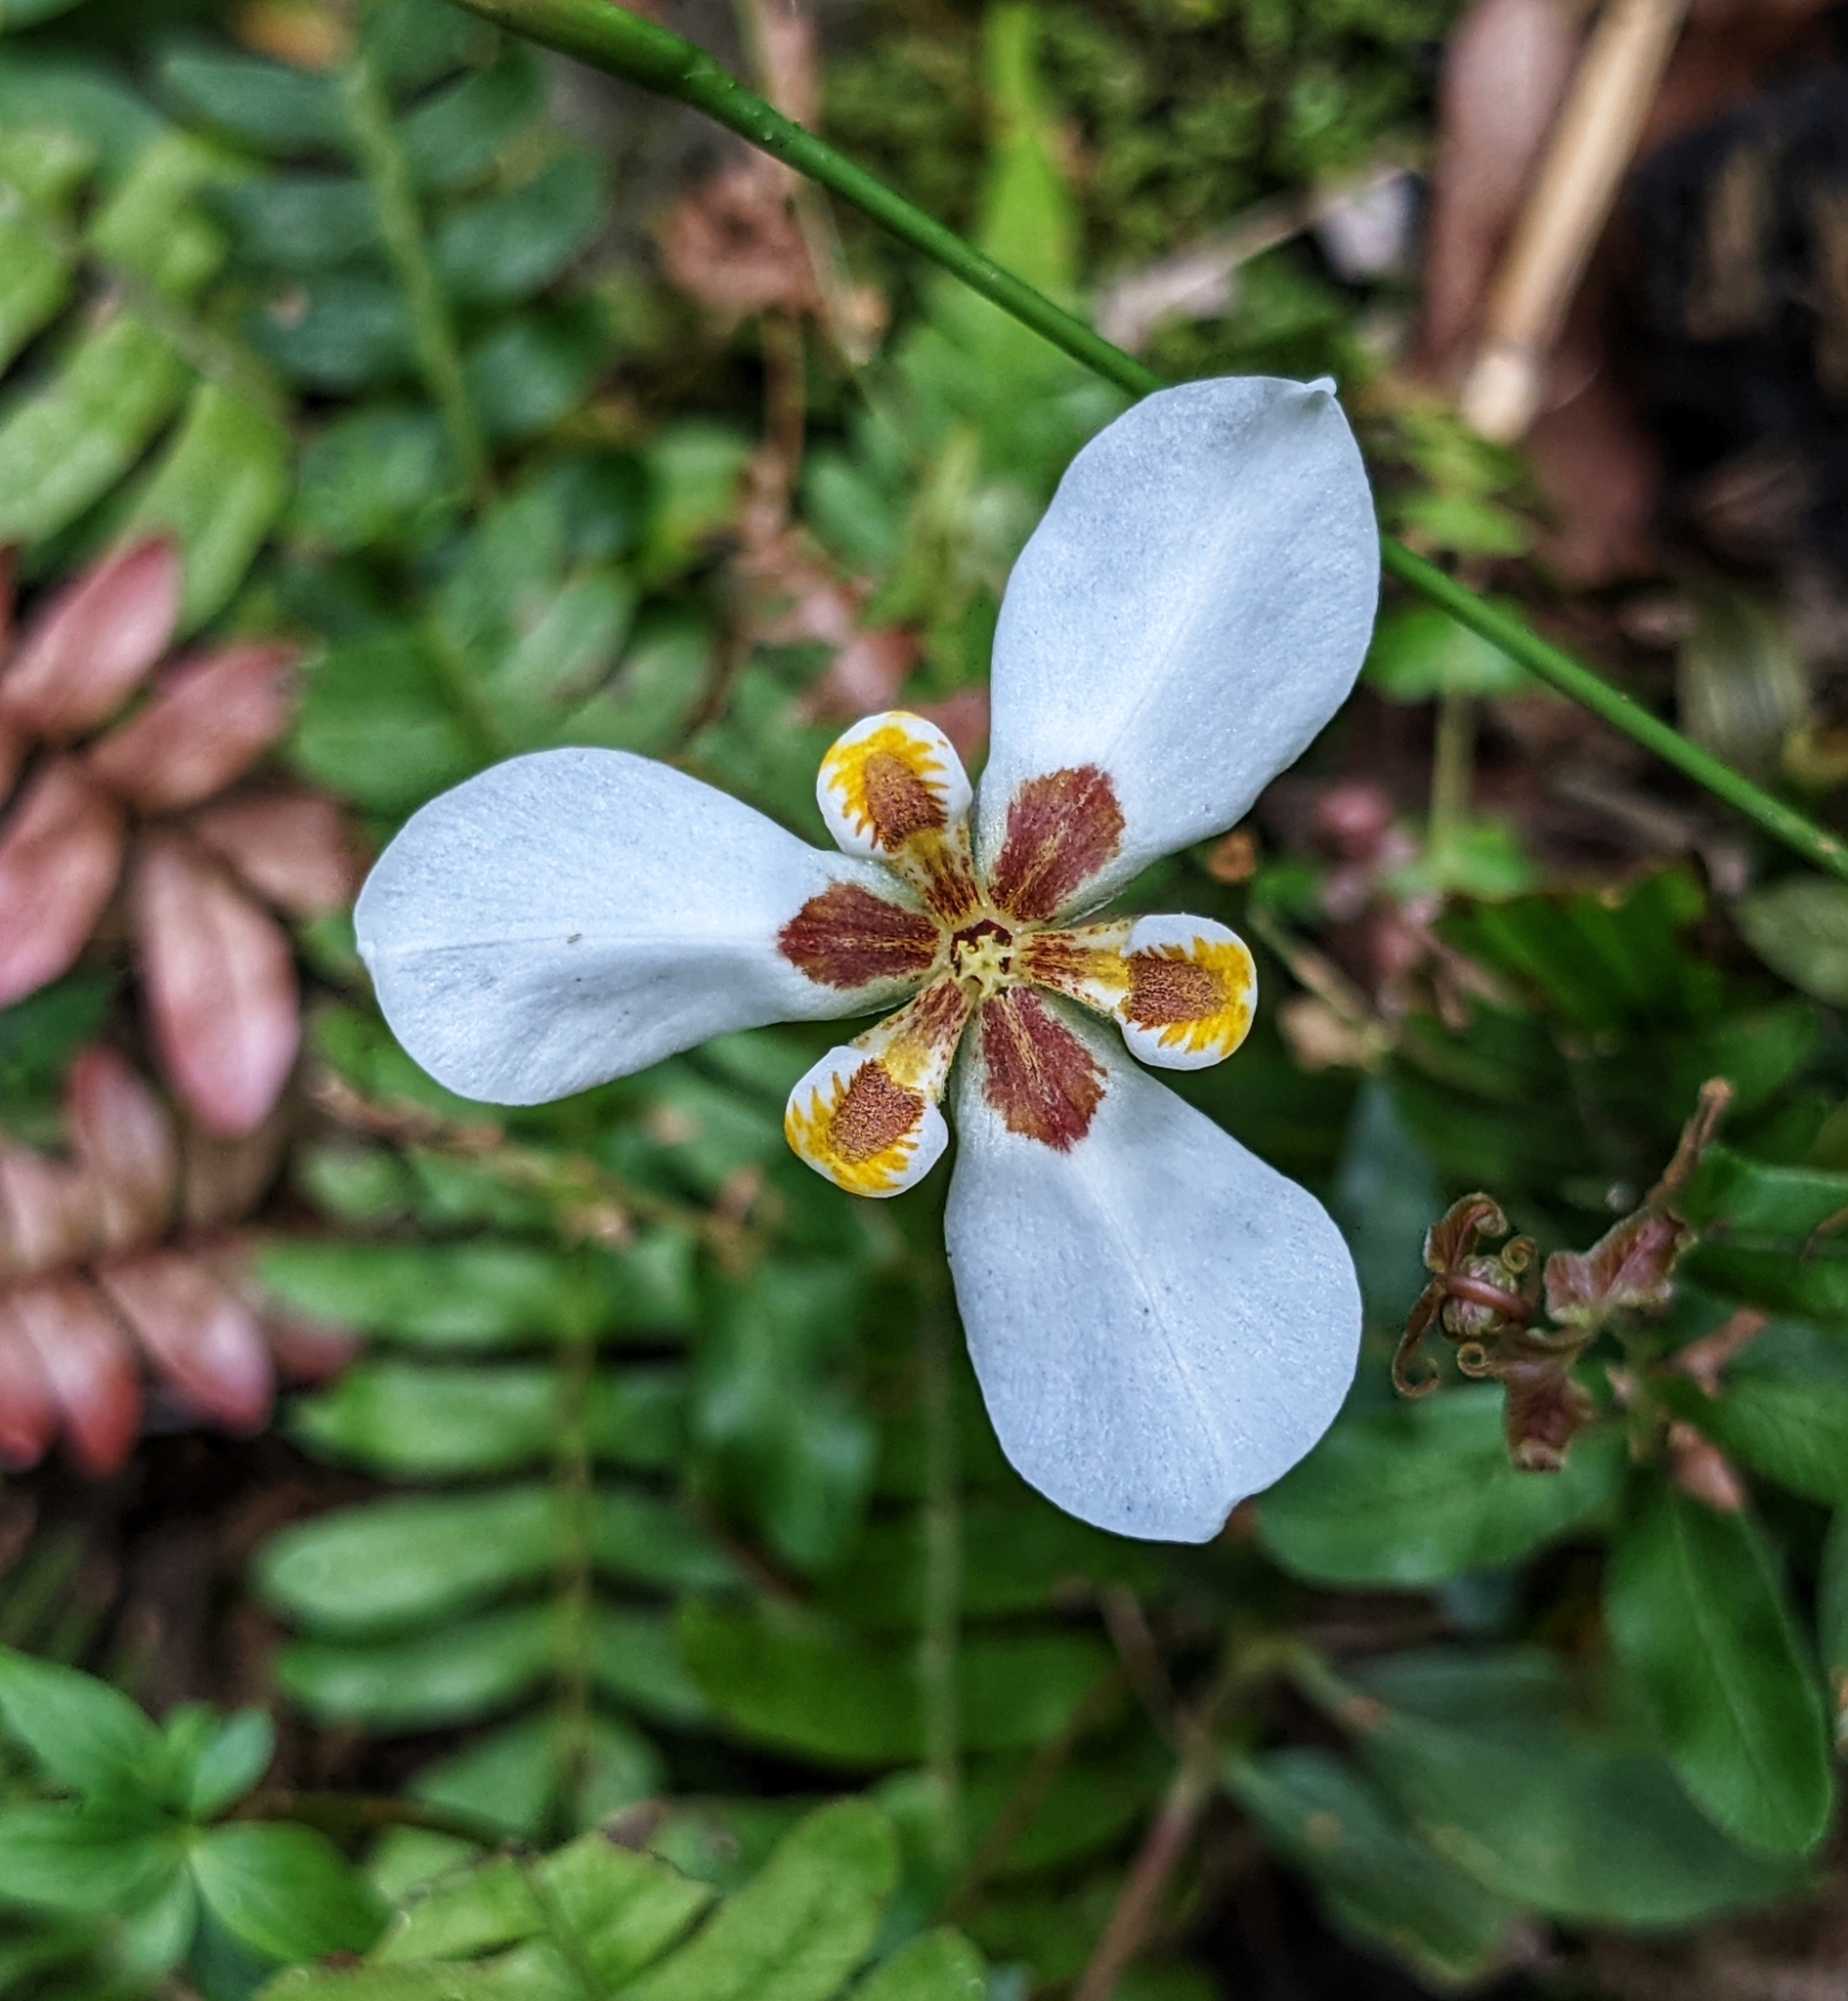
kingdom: Plantae
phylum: Tracheophyta
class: Liliopsida
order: Asparagales
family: Iridaceae
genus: Hesperoxiphion
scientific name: Hesperoxiphion huilense
